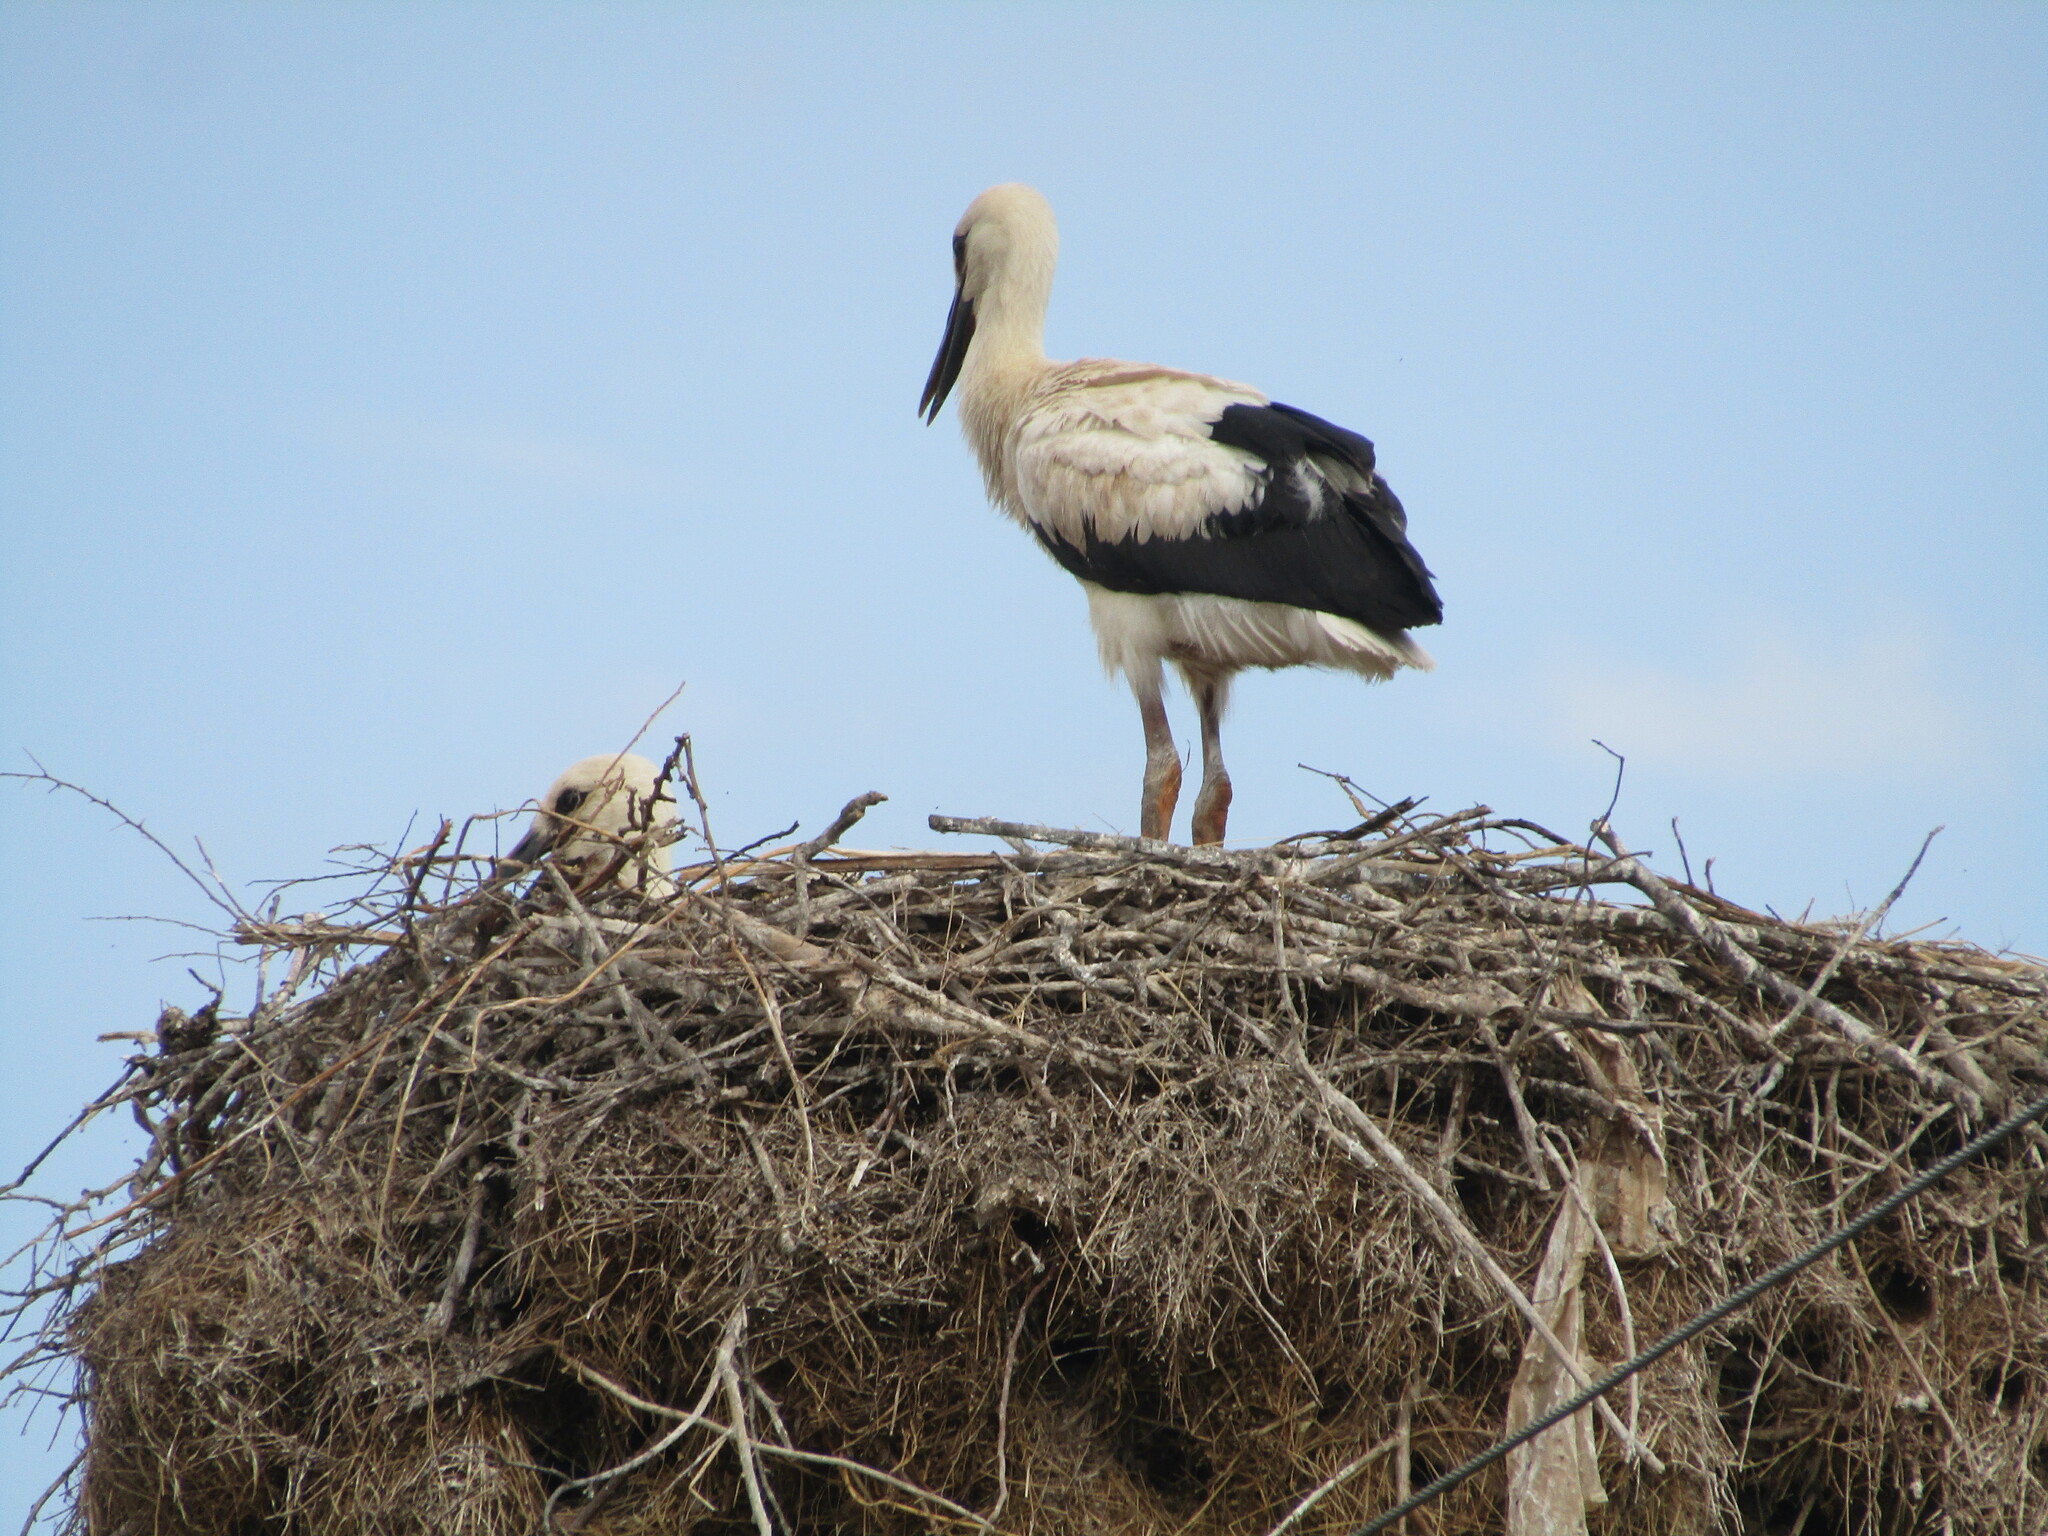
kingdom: Animalia
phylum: Chordata
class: Aves
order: Ciconiiformes
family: Ciconiidae
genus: Ciconia
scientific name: Ciconia ciconia
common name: White stork
